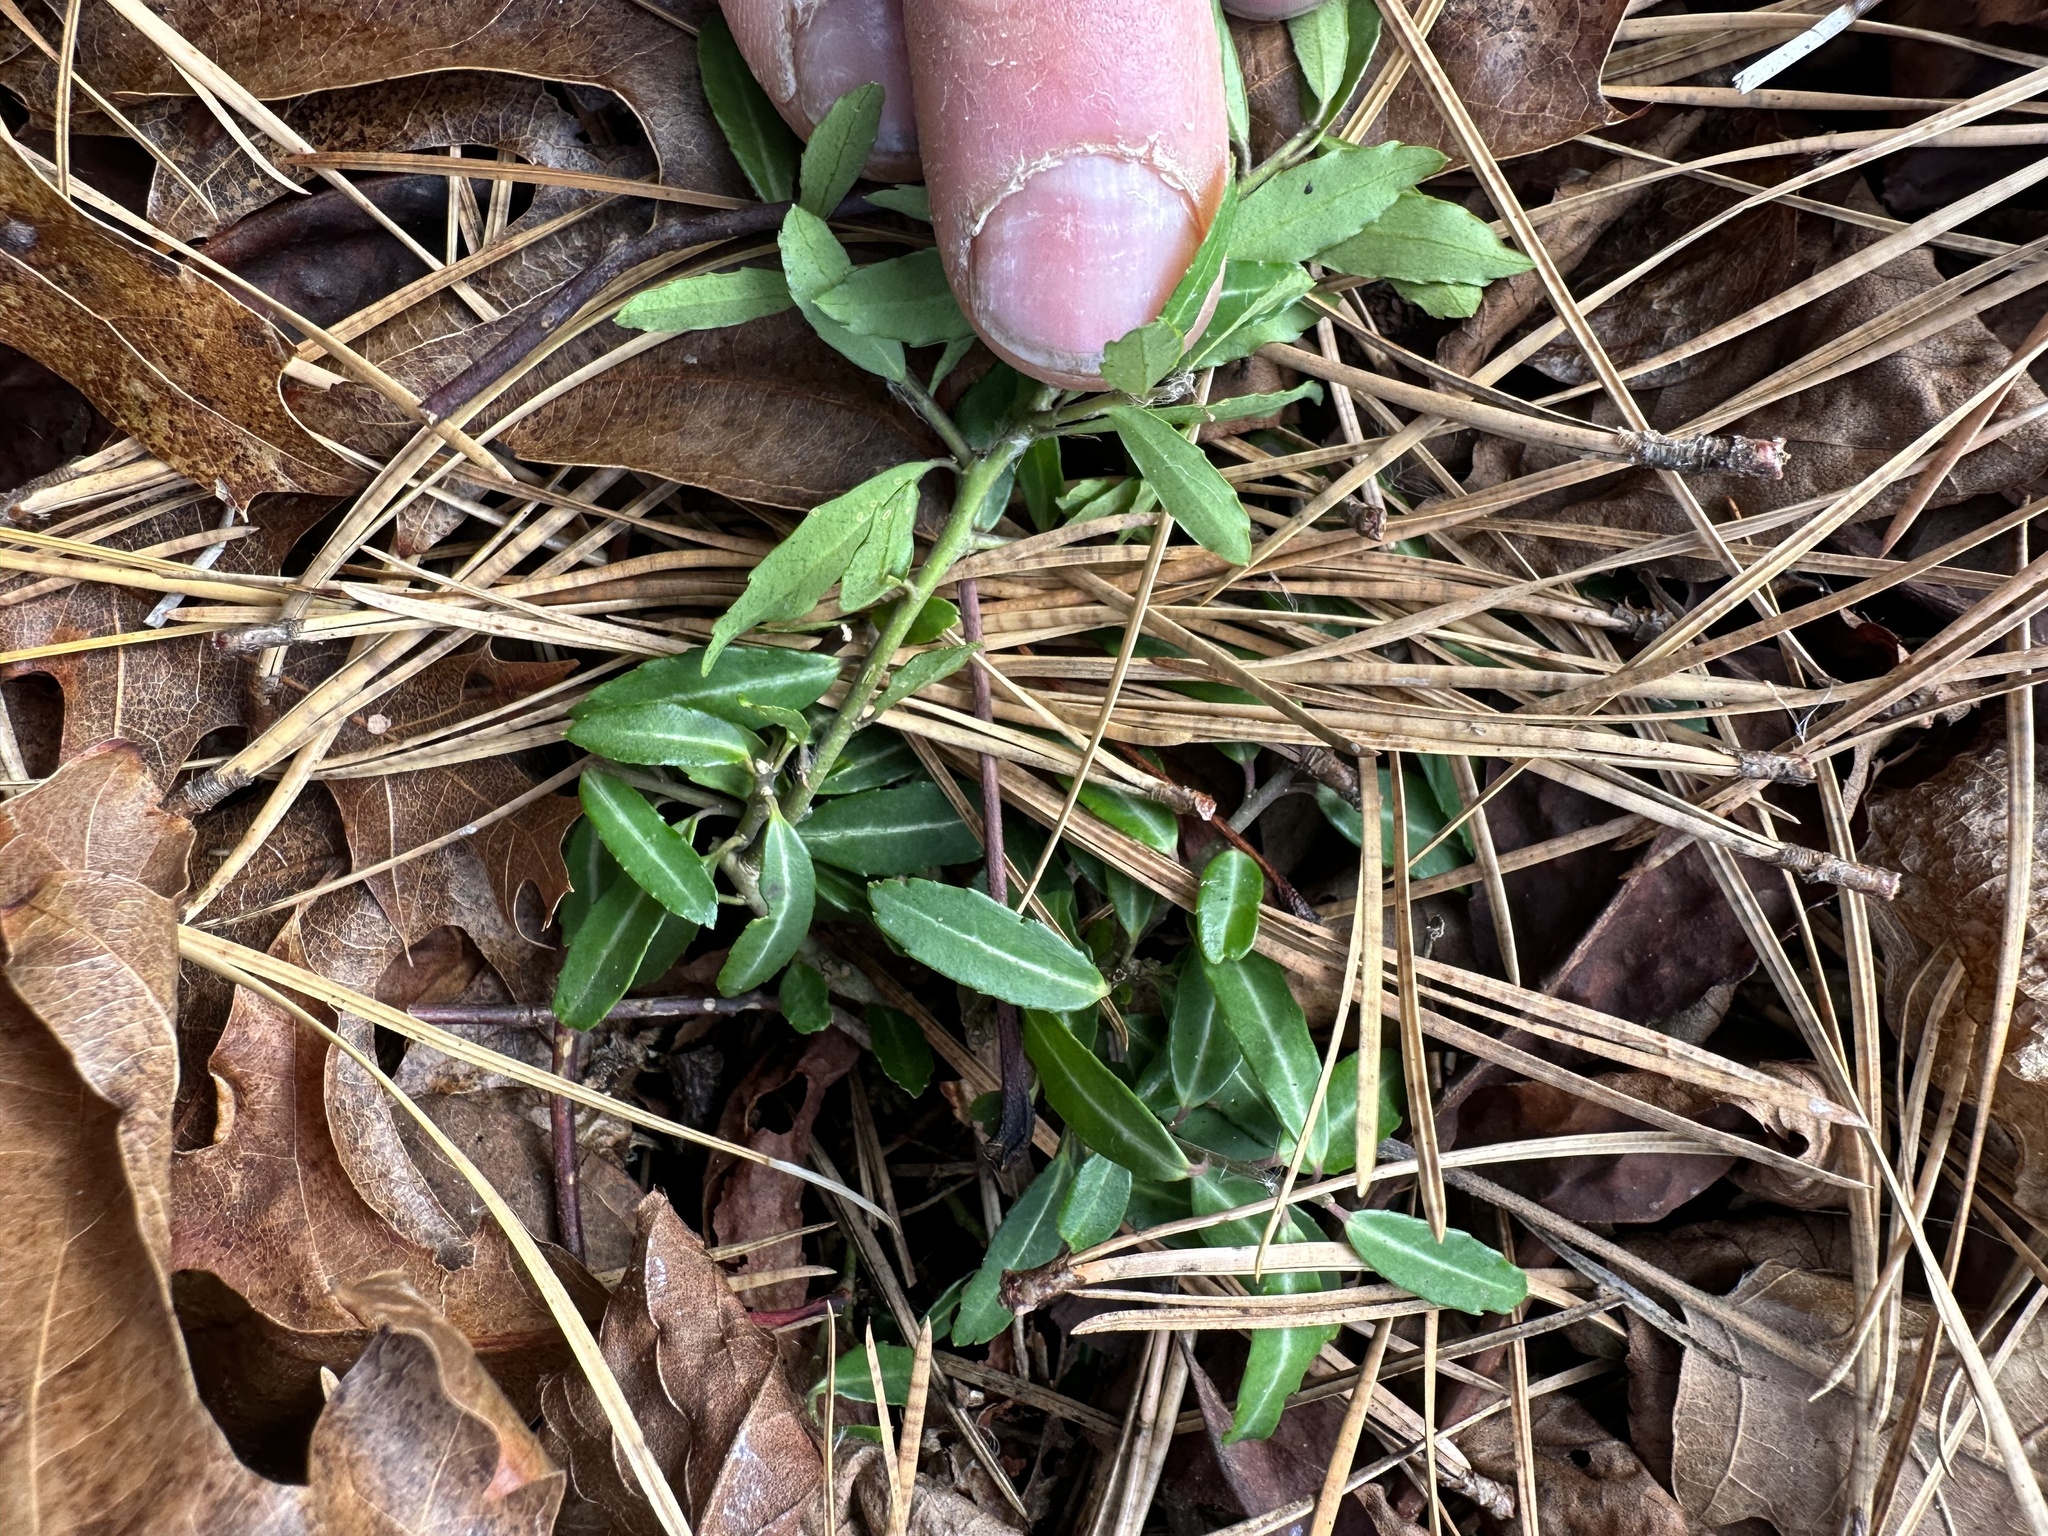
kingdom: Plantae
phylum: Tracheophyta
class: Magnoliopsida
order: Aquifoliales
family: Aquifoliaceae
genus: Ilex
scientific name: Ilex crenata
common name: Japanese holly
